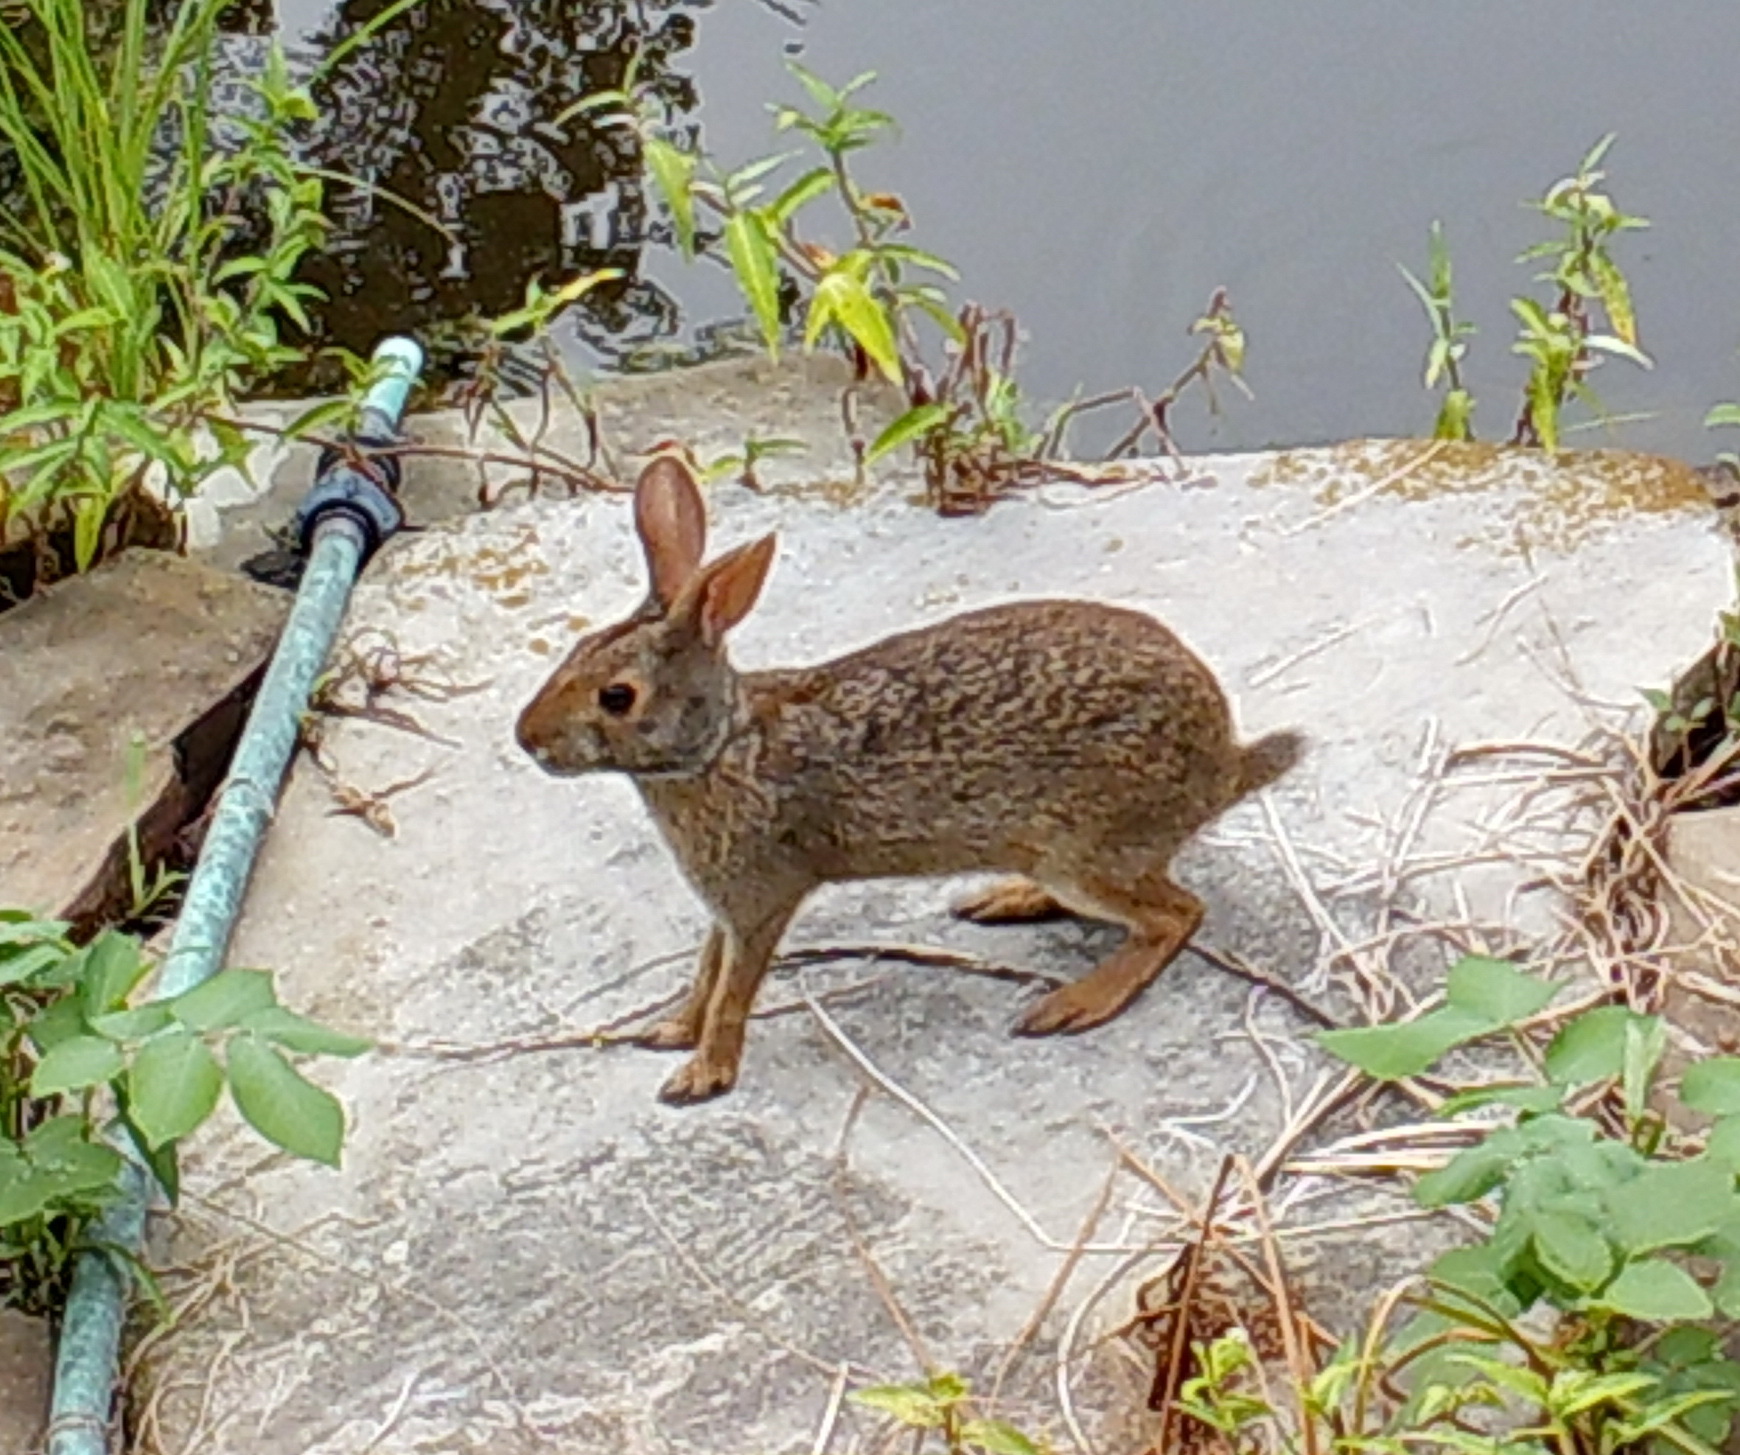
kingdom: Animalia
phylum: Chordata
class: Mammalia
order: Lagomorpha
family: Leporidae
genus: Sylvilagus
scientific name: Sylvilagus aquaticus
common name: Swamp rabbit
